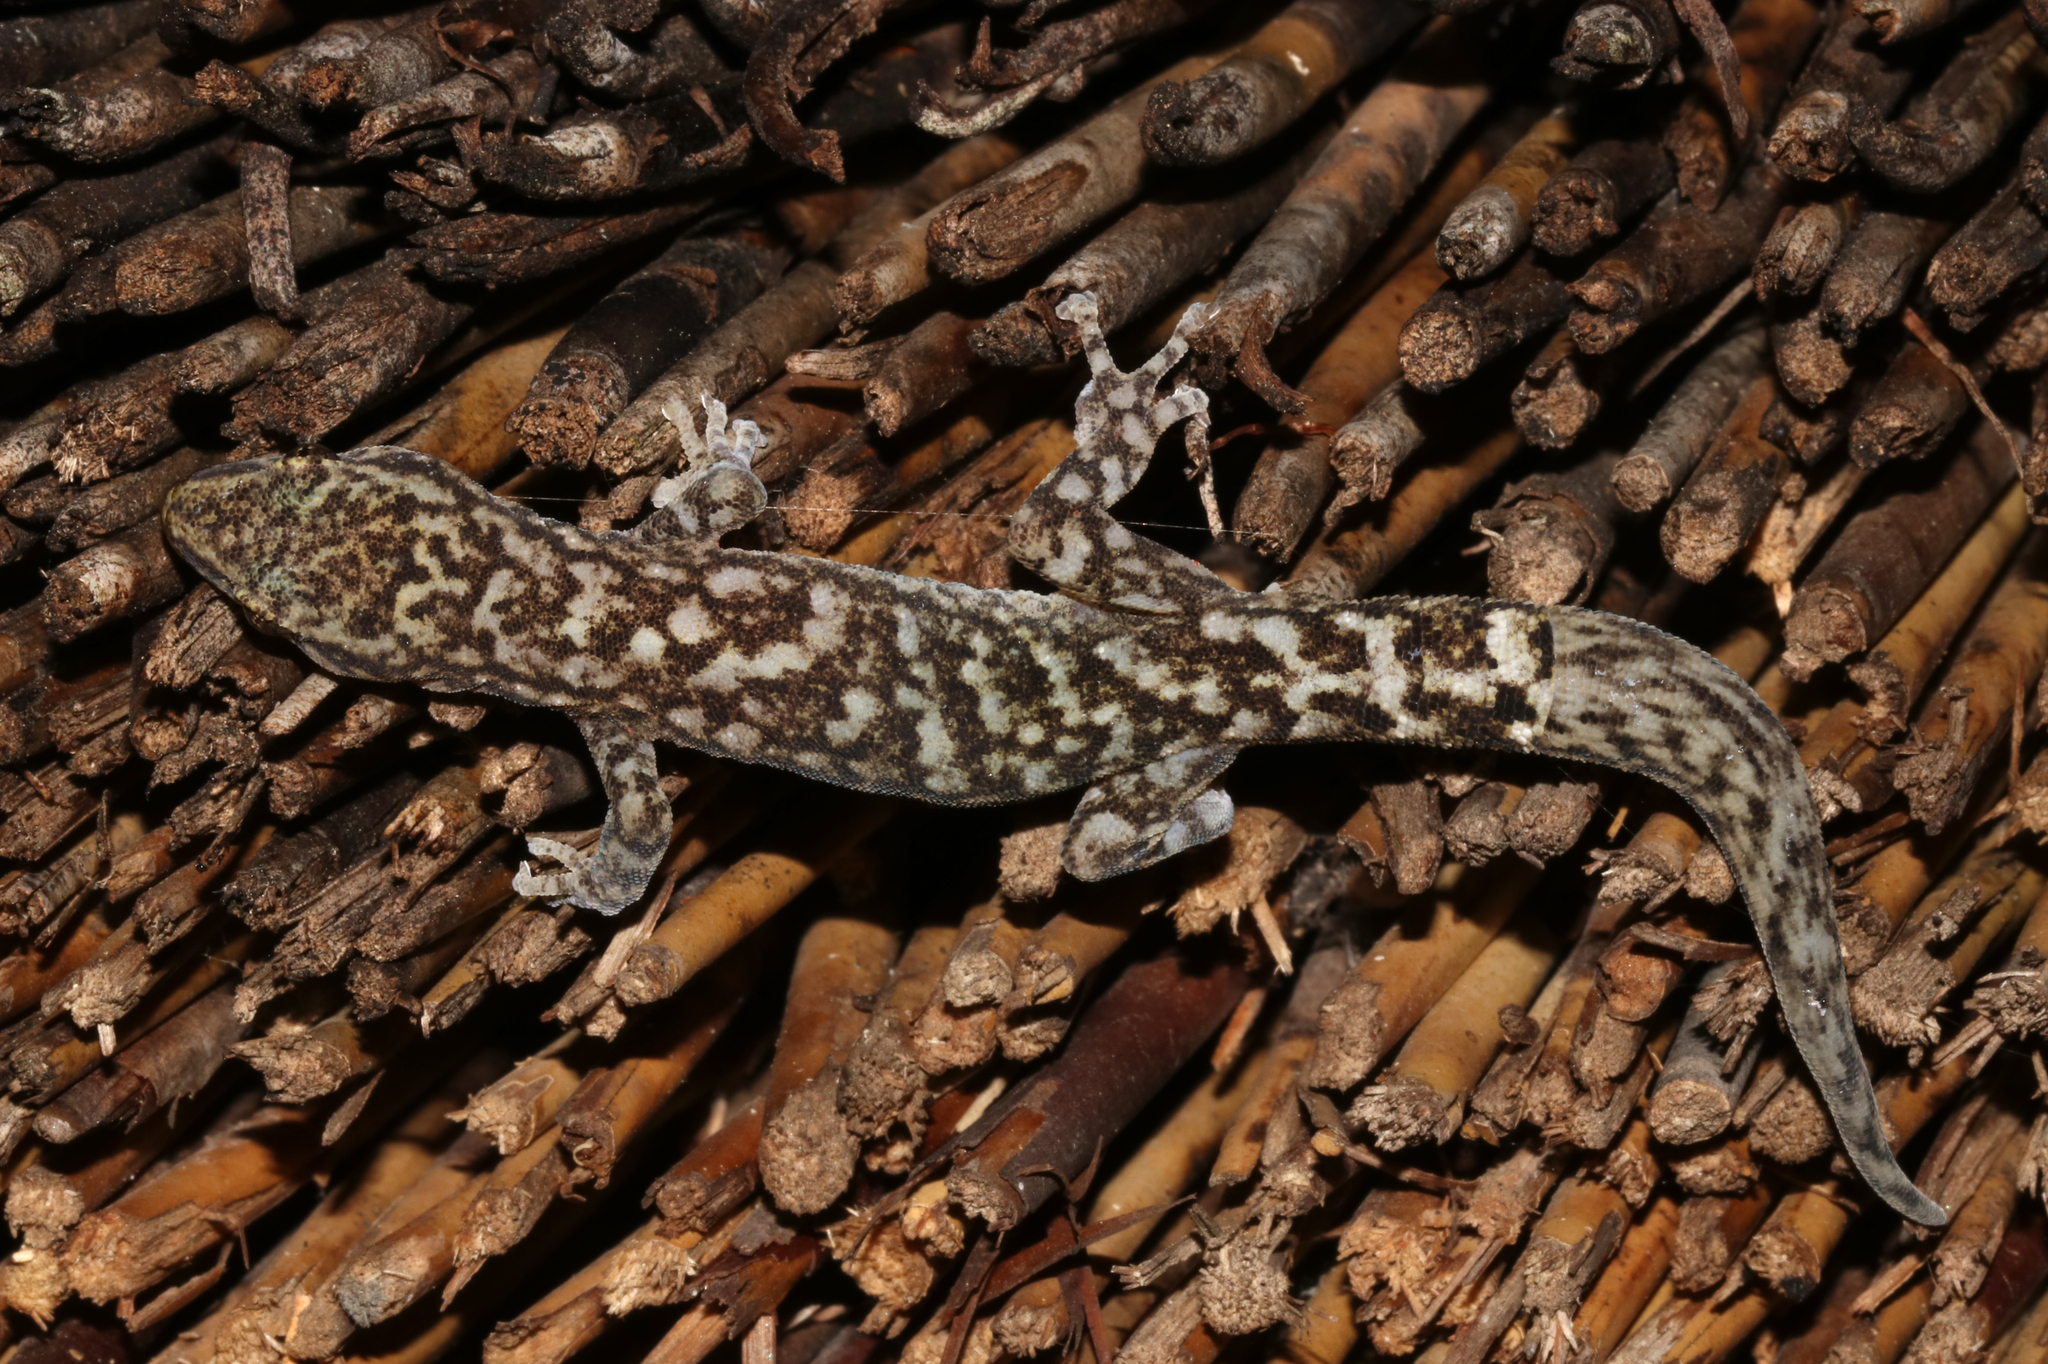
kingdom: Animalia
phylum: Chordata
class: Squamata
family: Gekkonidae
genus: Afrogecko
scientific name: Afrogecko porphyreus
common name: Marbled leaf-toed gecko
